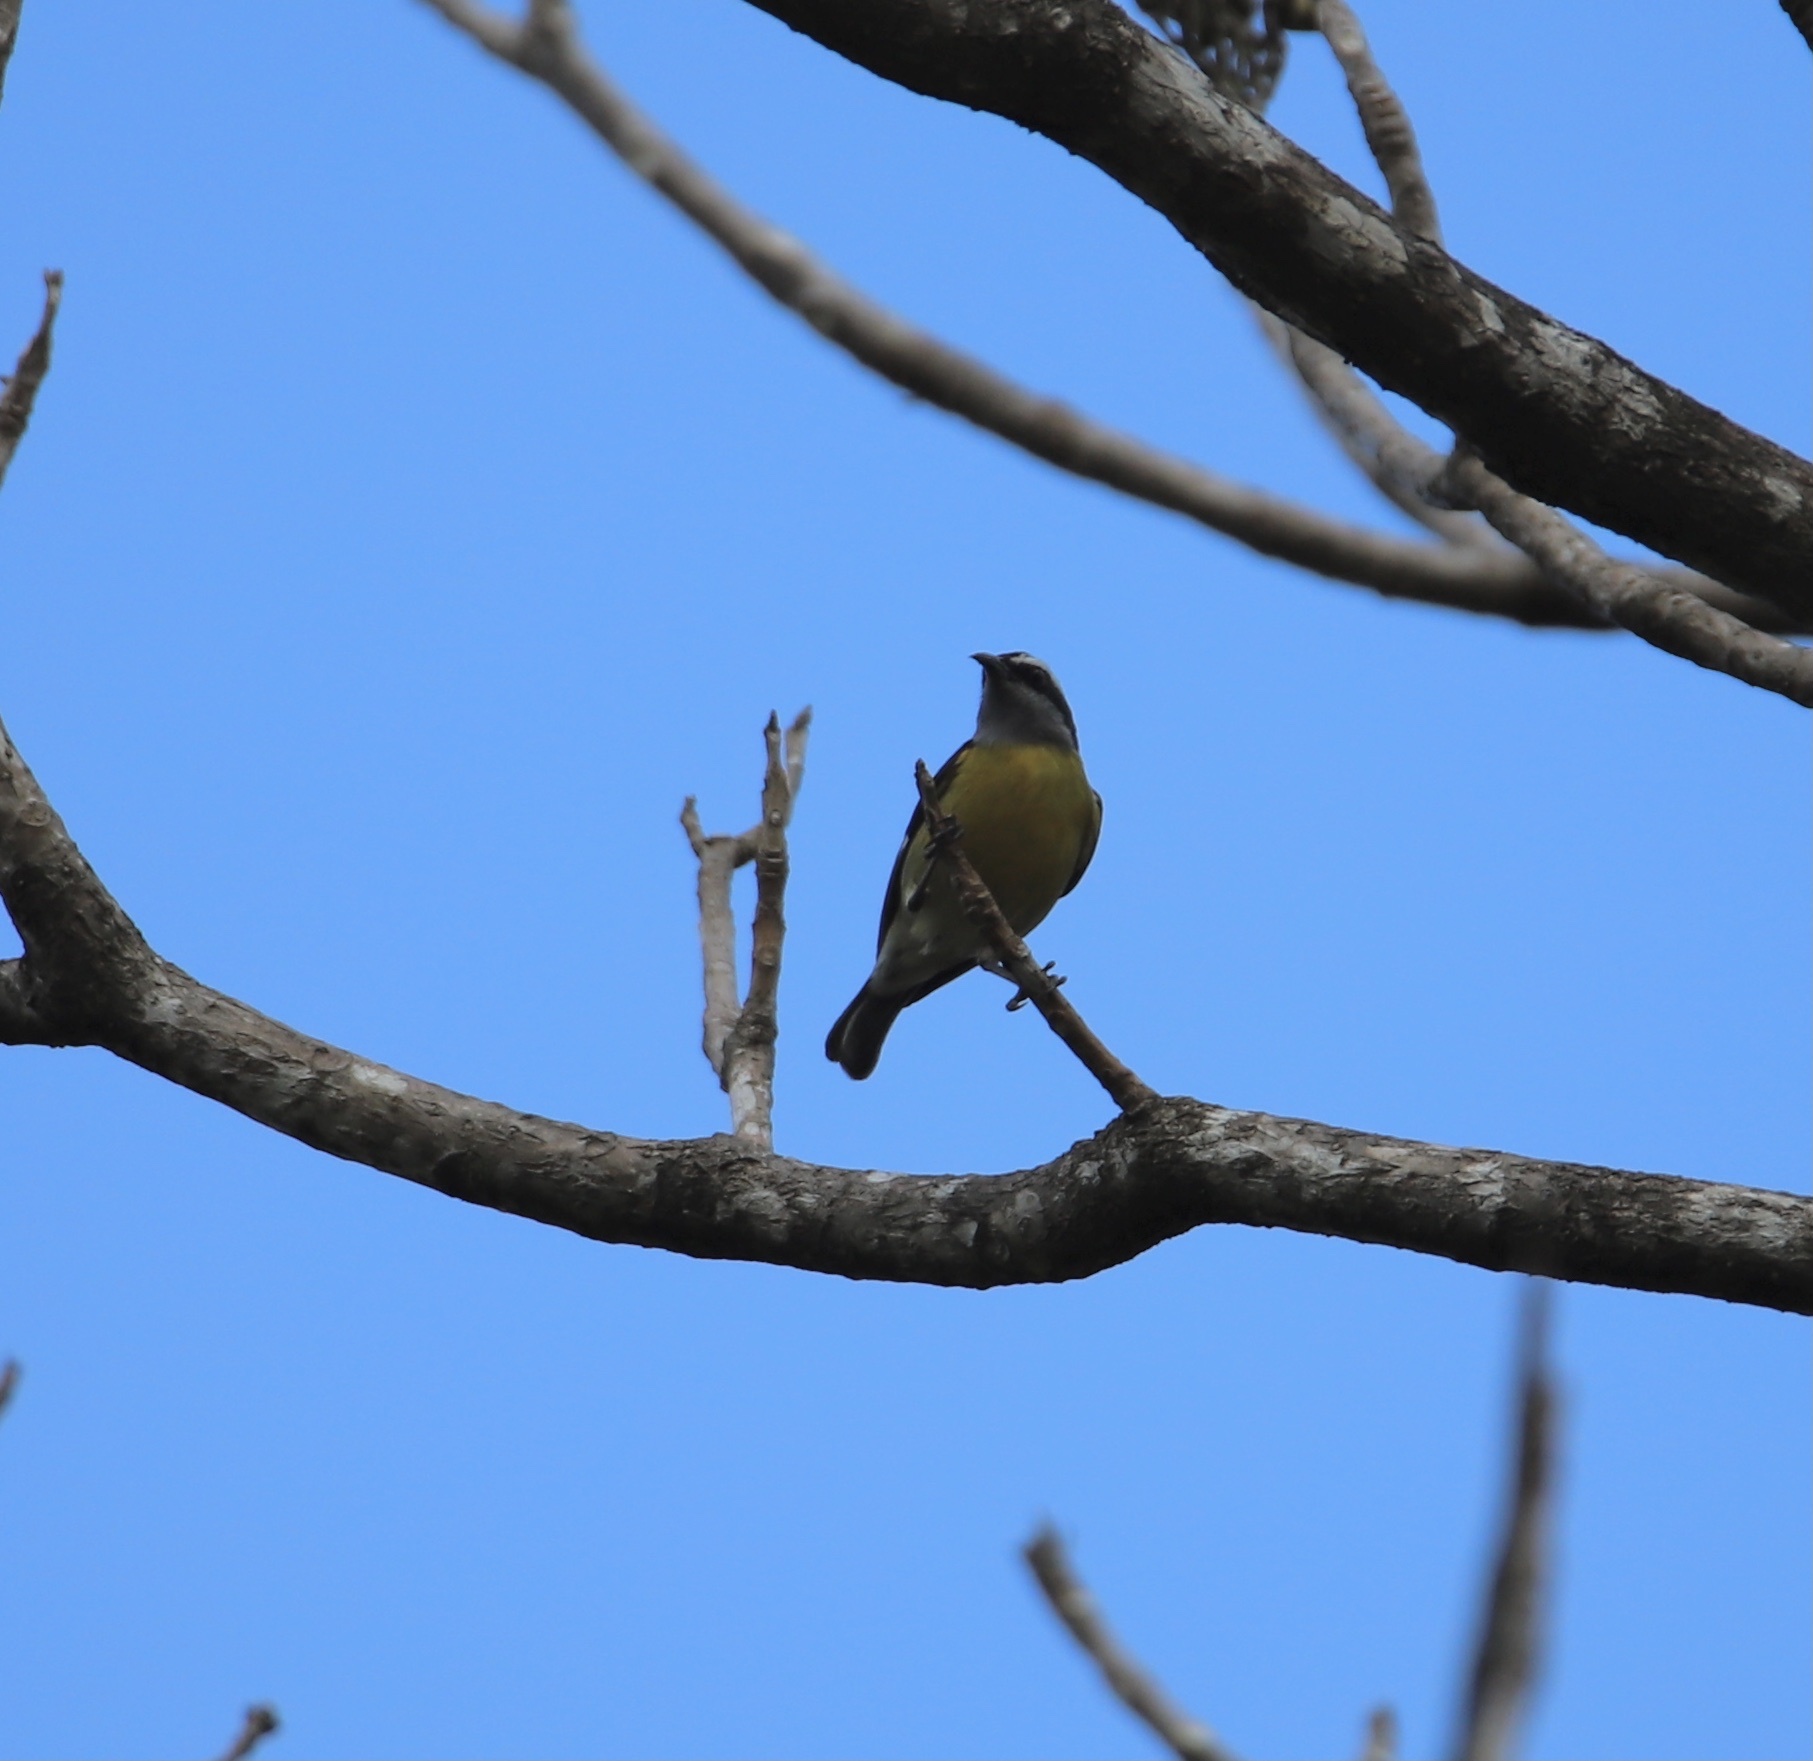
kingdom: Animalia
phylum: Chordata
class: Aves
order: Passeriformes
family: Thraupidae
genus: Coereba
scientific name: Coereba flaveola
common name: Bananaquit
